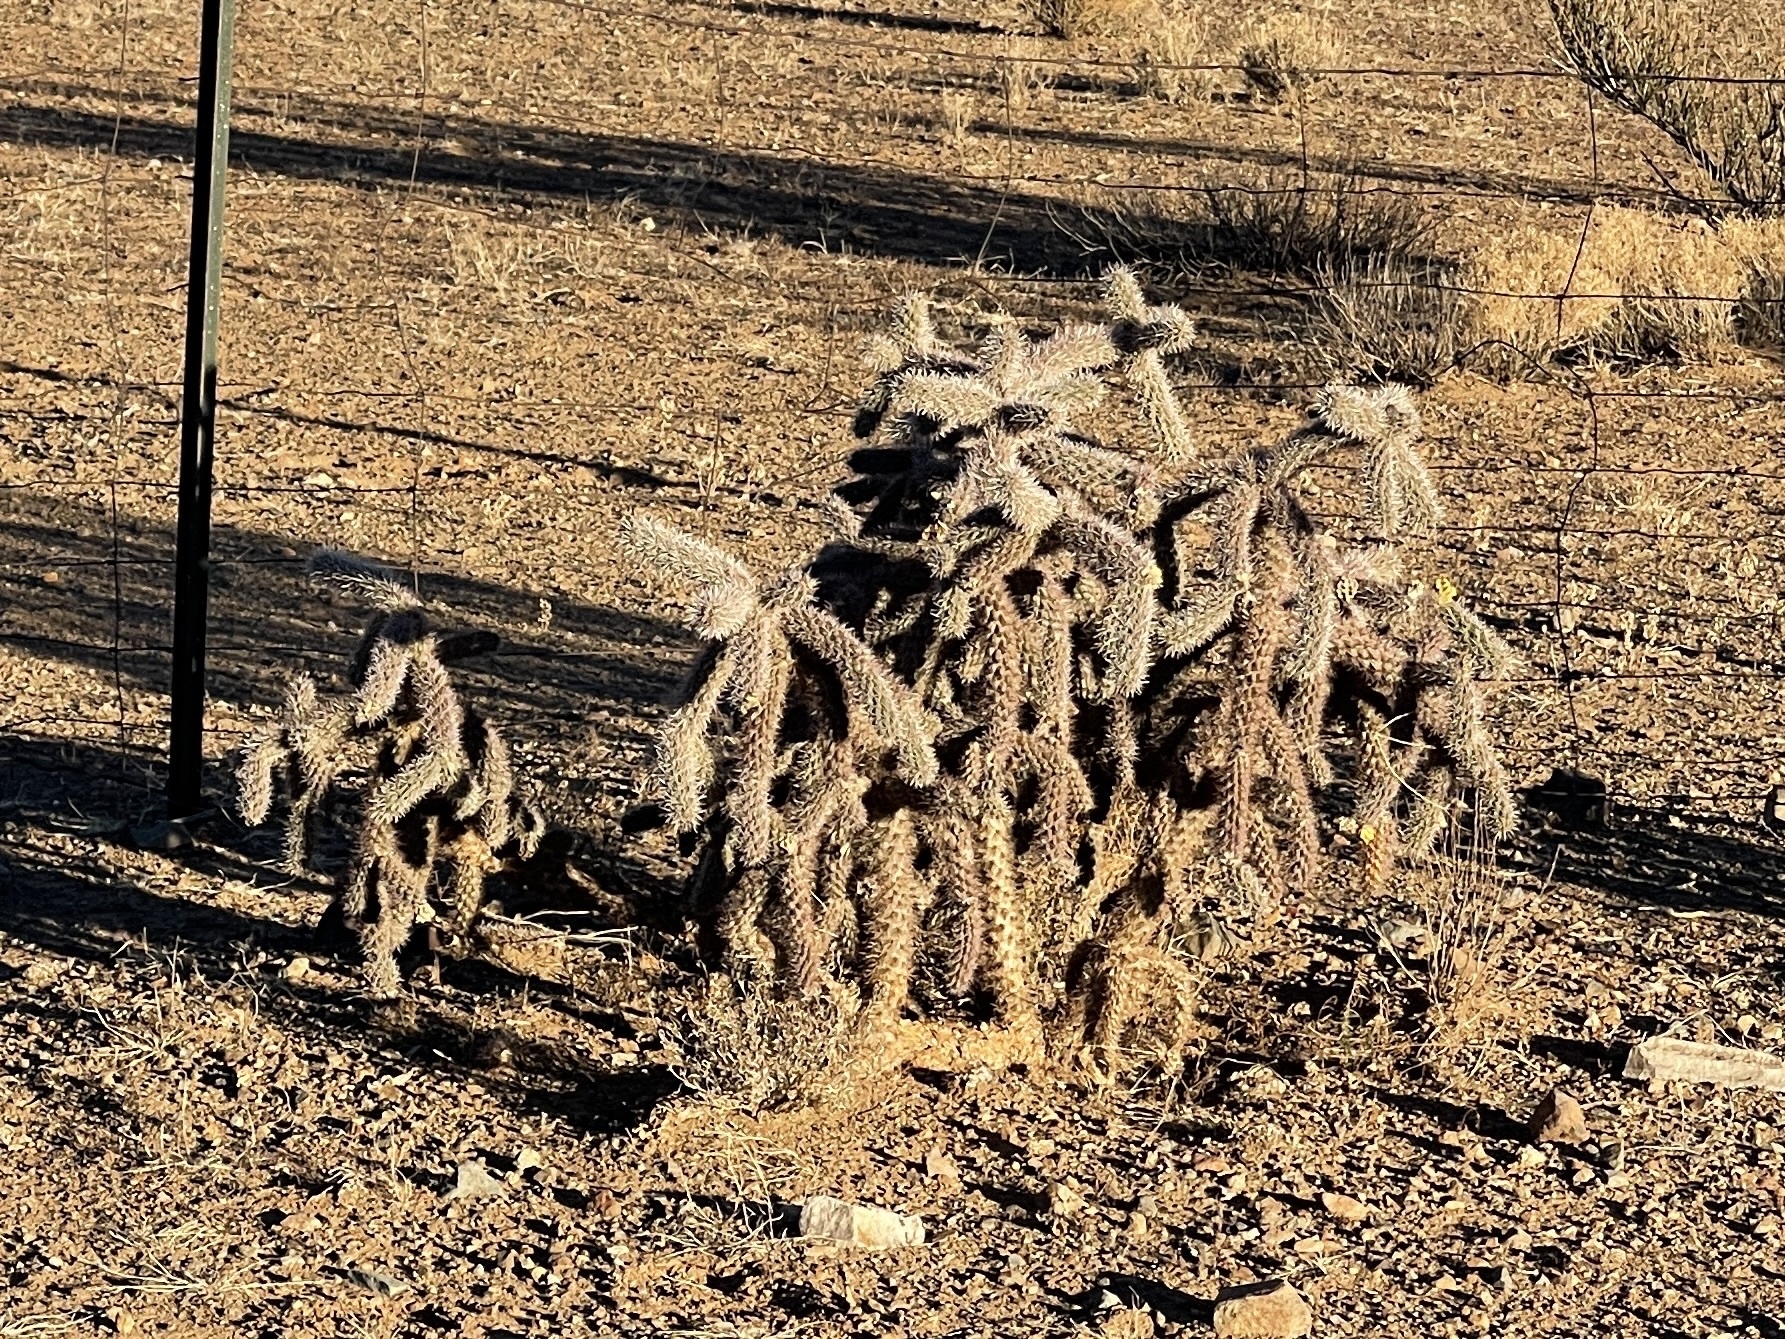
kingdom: Plantae
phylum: Tracheophyta
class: Magnoliopsida
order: Caryophyllales
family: Cactaceae
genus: Cylindropuntia
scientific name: Cylindropuntia imbricata
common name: Candelabrum cactus
